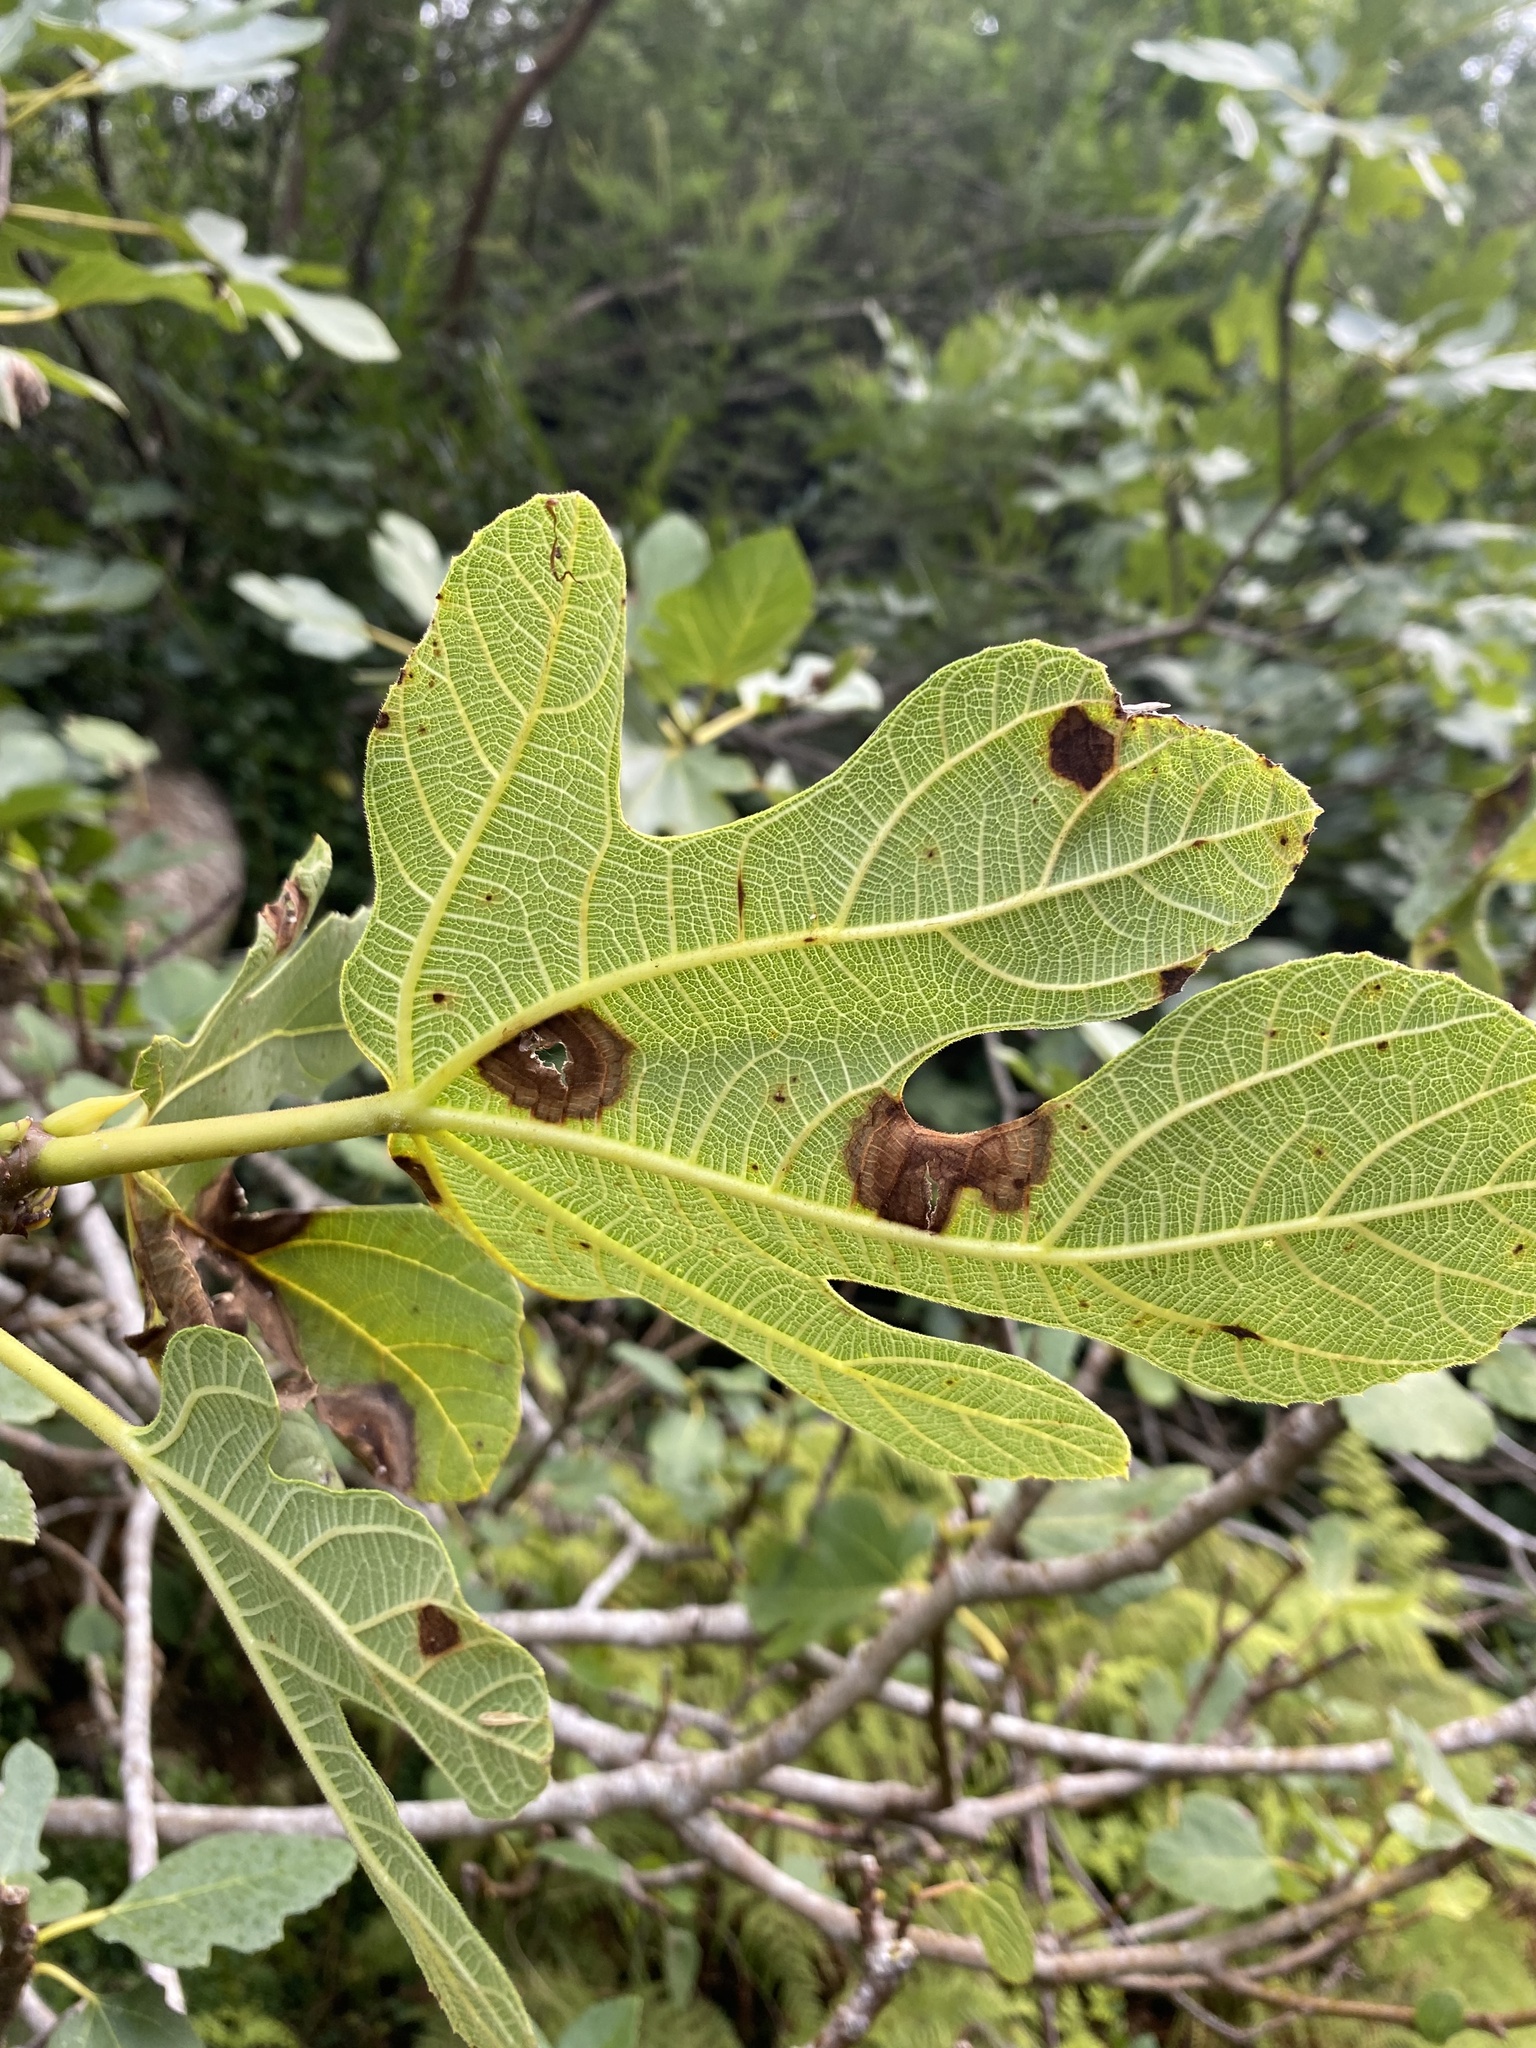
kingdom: Plantae
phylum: Tracheophyta
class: Magnoliopsida
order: Rosales
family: Moraceae
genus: Ficus
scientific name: Ficus carica
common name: Fig
